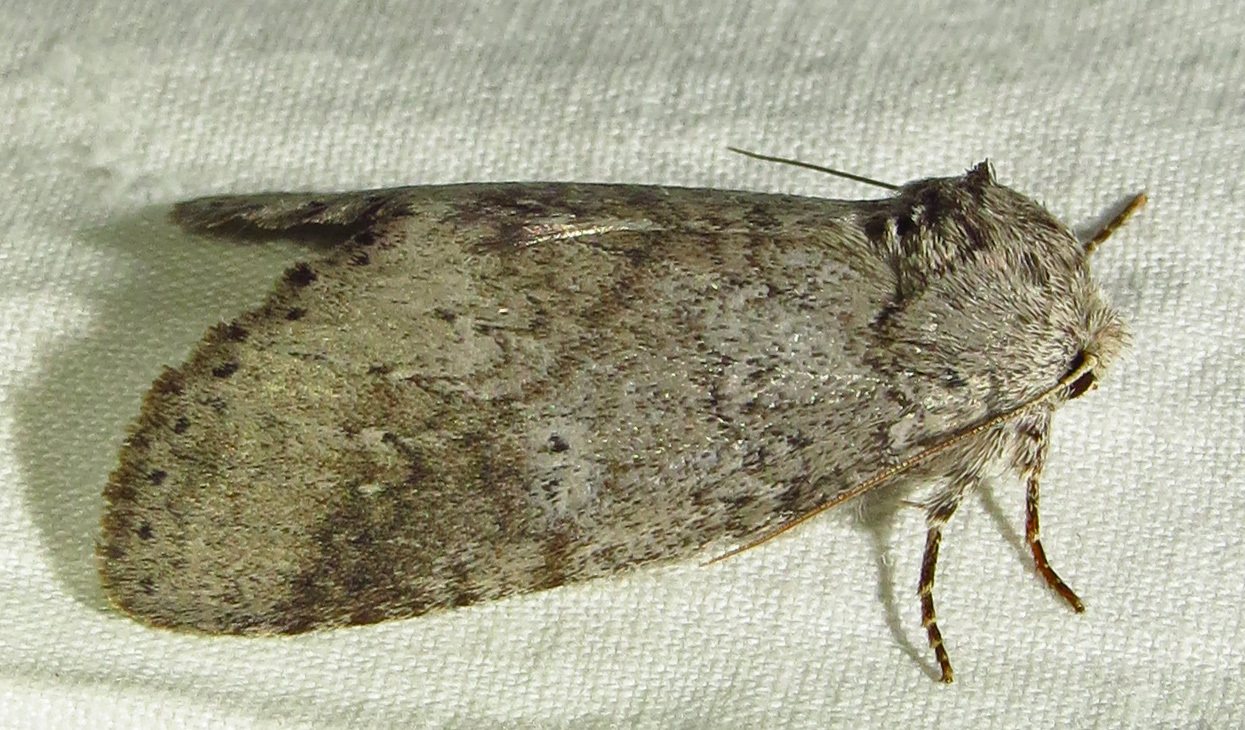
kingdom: Animalia
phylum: Arthropoda
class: Insecta
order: Lepidoptera
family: Notodontidae
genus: Lochmaeus
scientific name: Lochmaeus manteo
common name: Variable oakleaf caterpillar moth
